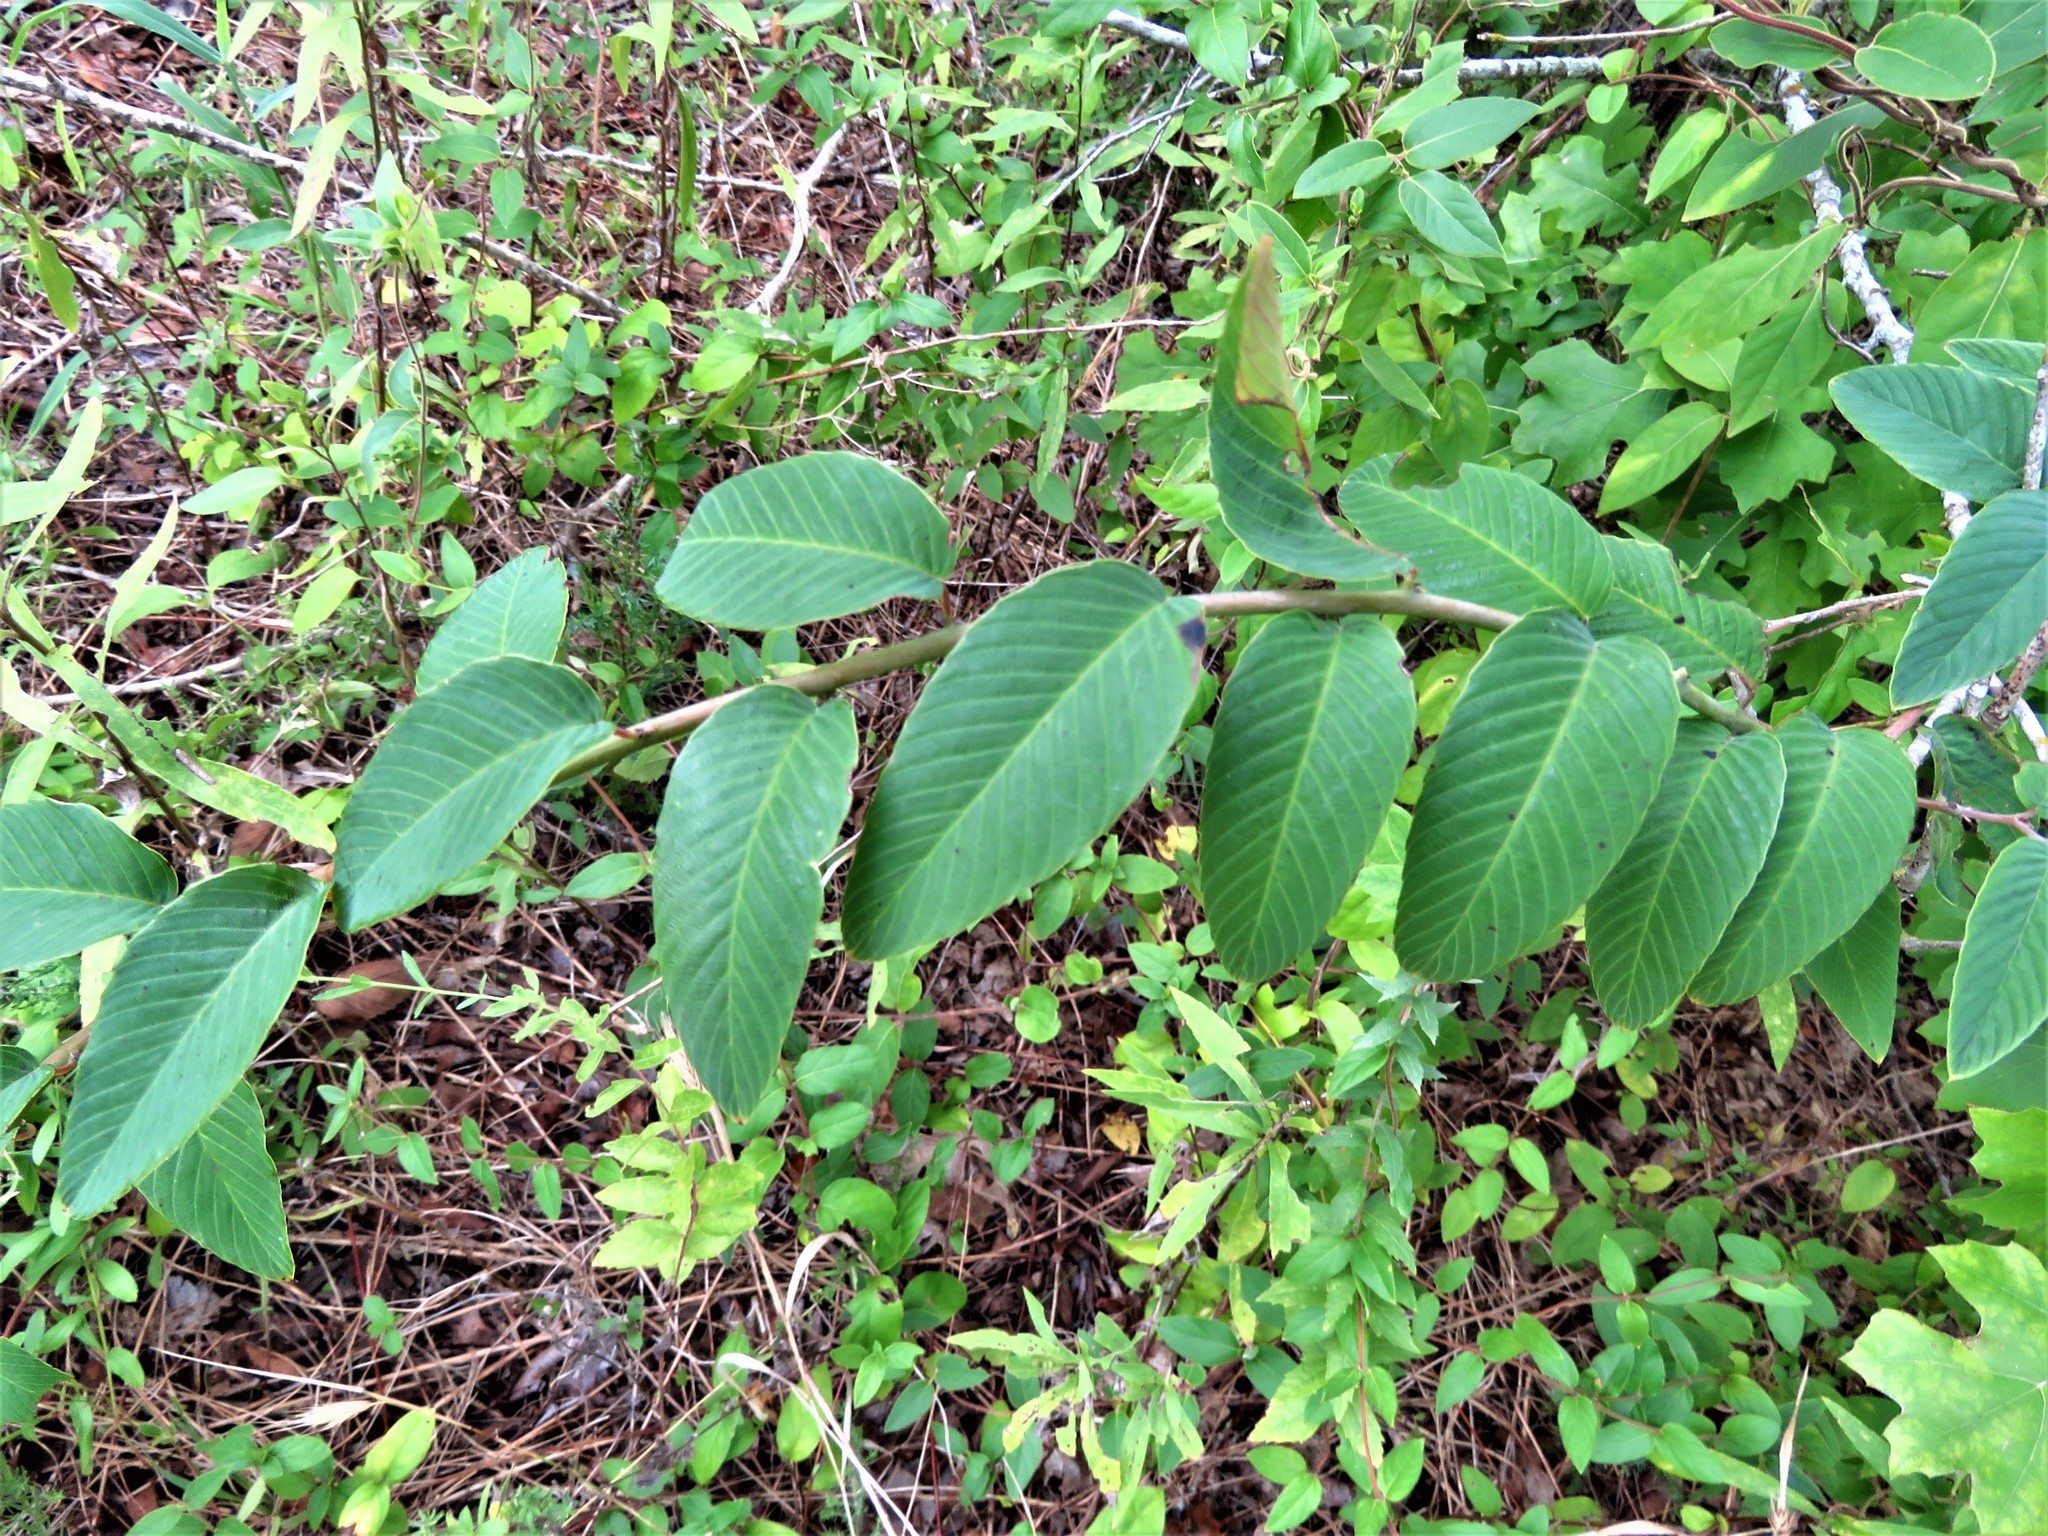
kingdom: Plantae
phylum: Tracheophyta
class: Magnoliopsida
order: Rosales
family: Rhamnaceae
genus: Berchemia
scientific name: Berchemia scandens
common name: Supplejack
